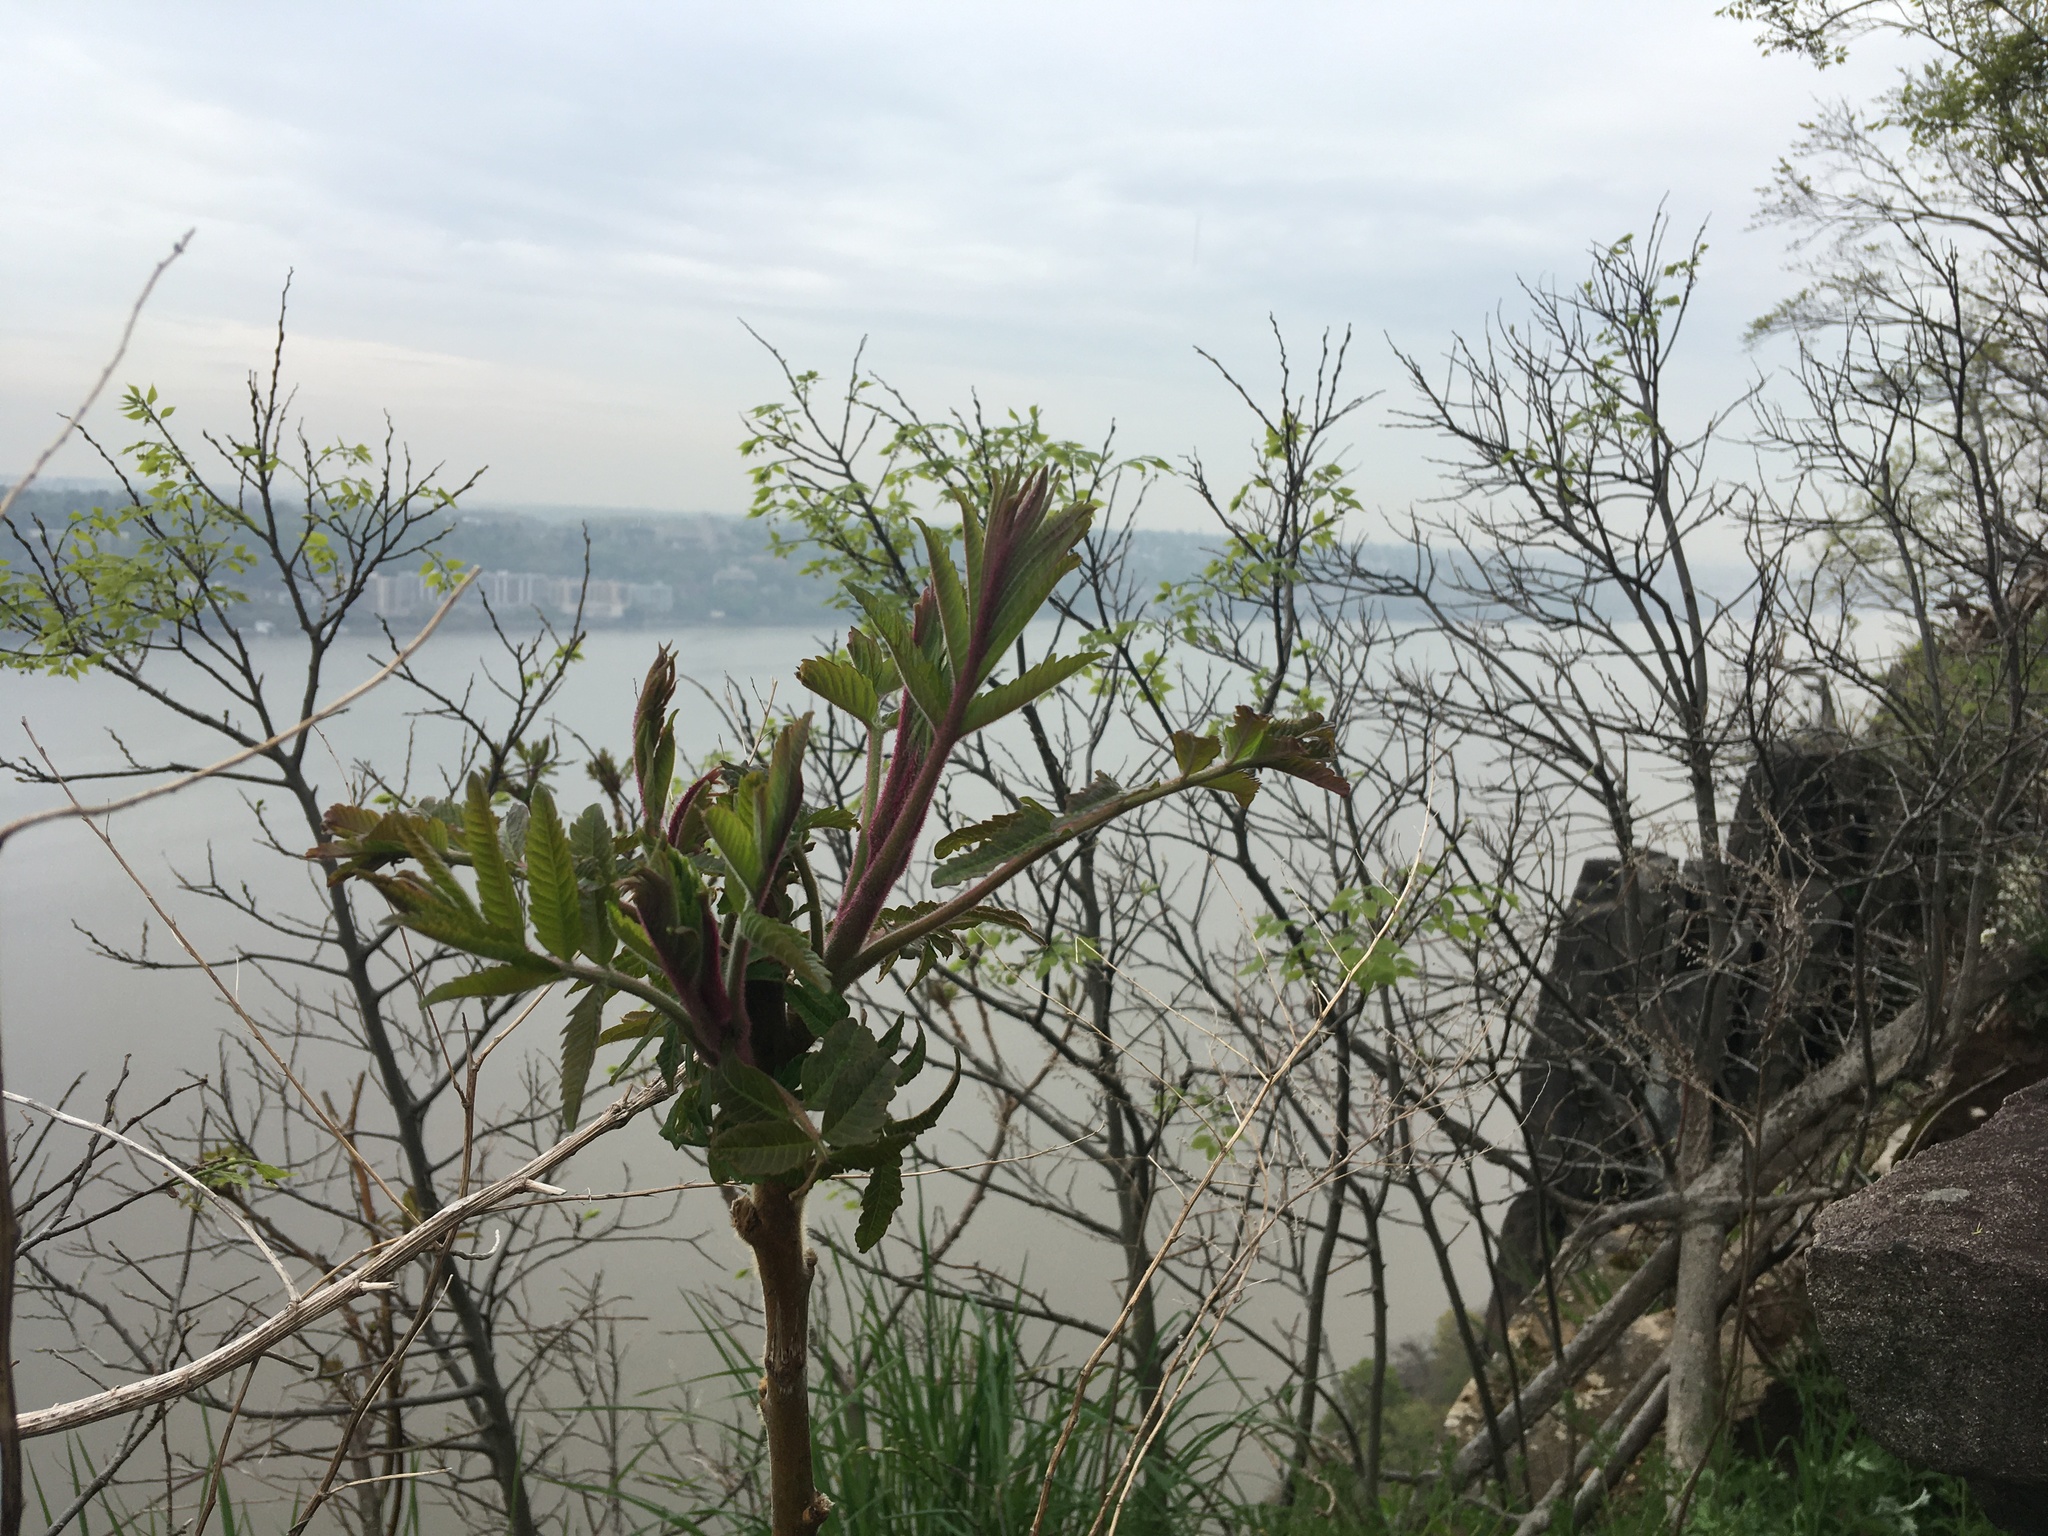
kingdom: Plantae
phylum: Tracheophyta
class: Magnoliopsida
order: Sapindales
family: Anacardiaceae
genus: Rhus
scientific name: Rhus typhina
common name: Staghorn sumac
